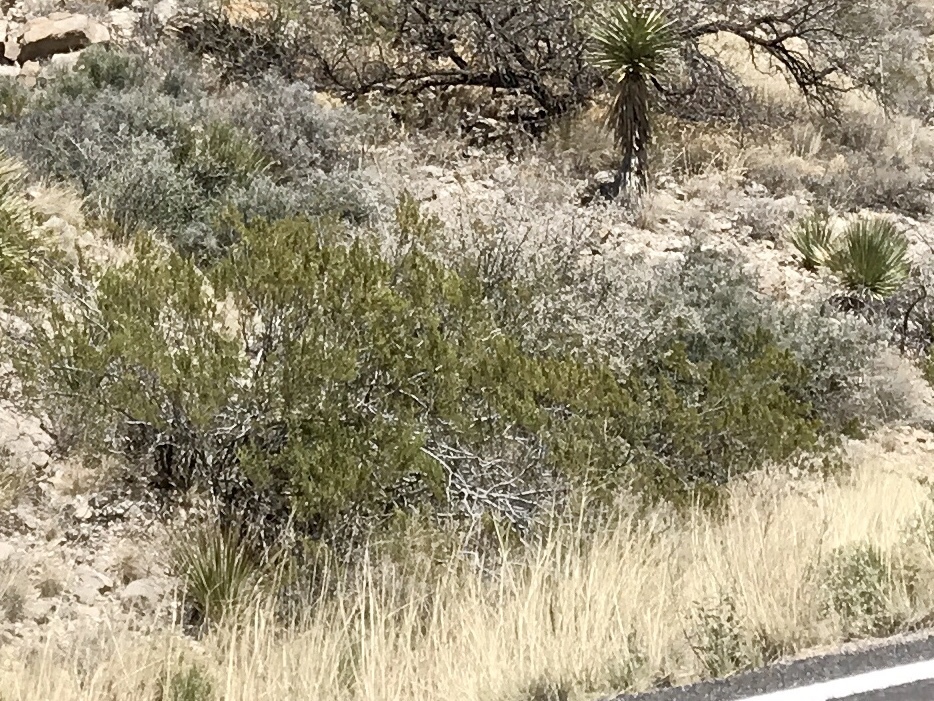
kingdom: Plantae
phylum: Tracheophyta
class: Magnoliopsida
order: Zygophyllales
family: Zygophyllaceae
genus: Larrea
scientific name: Larrea tridentata
